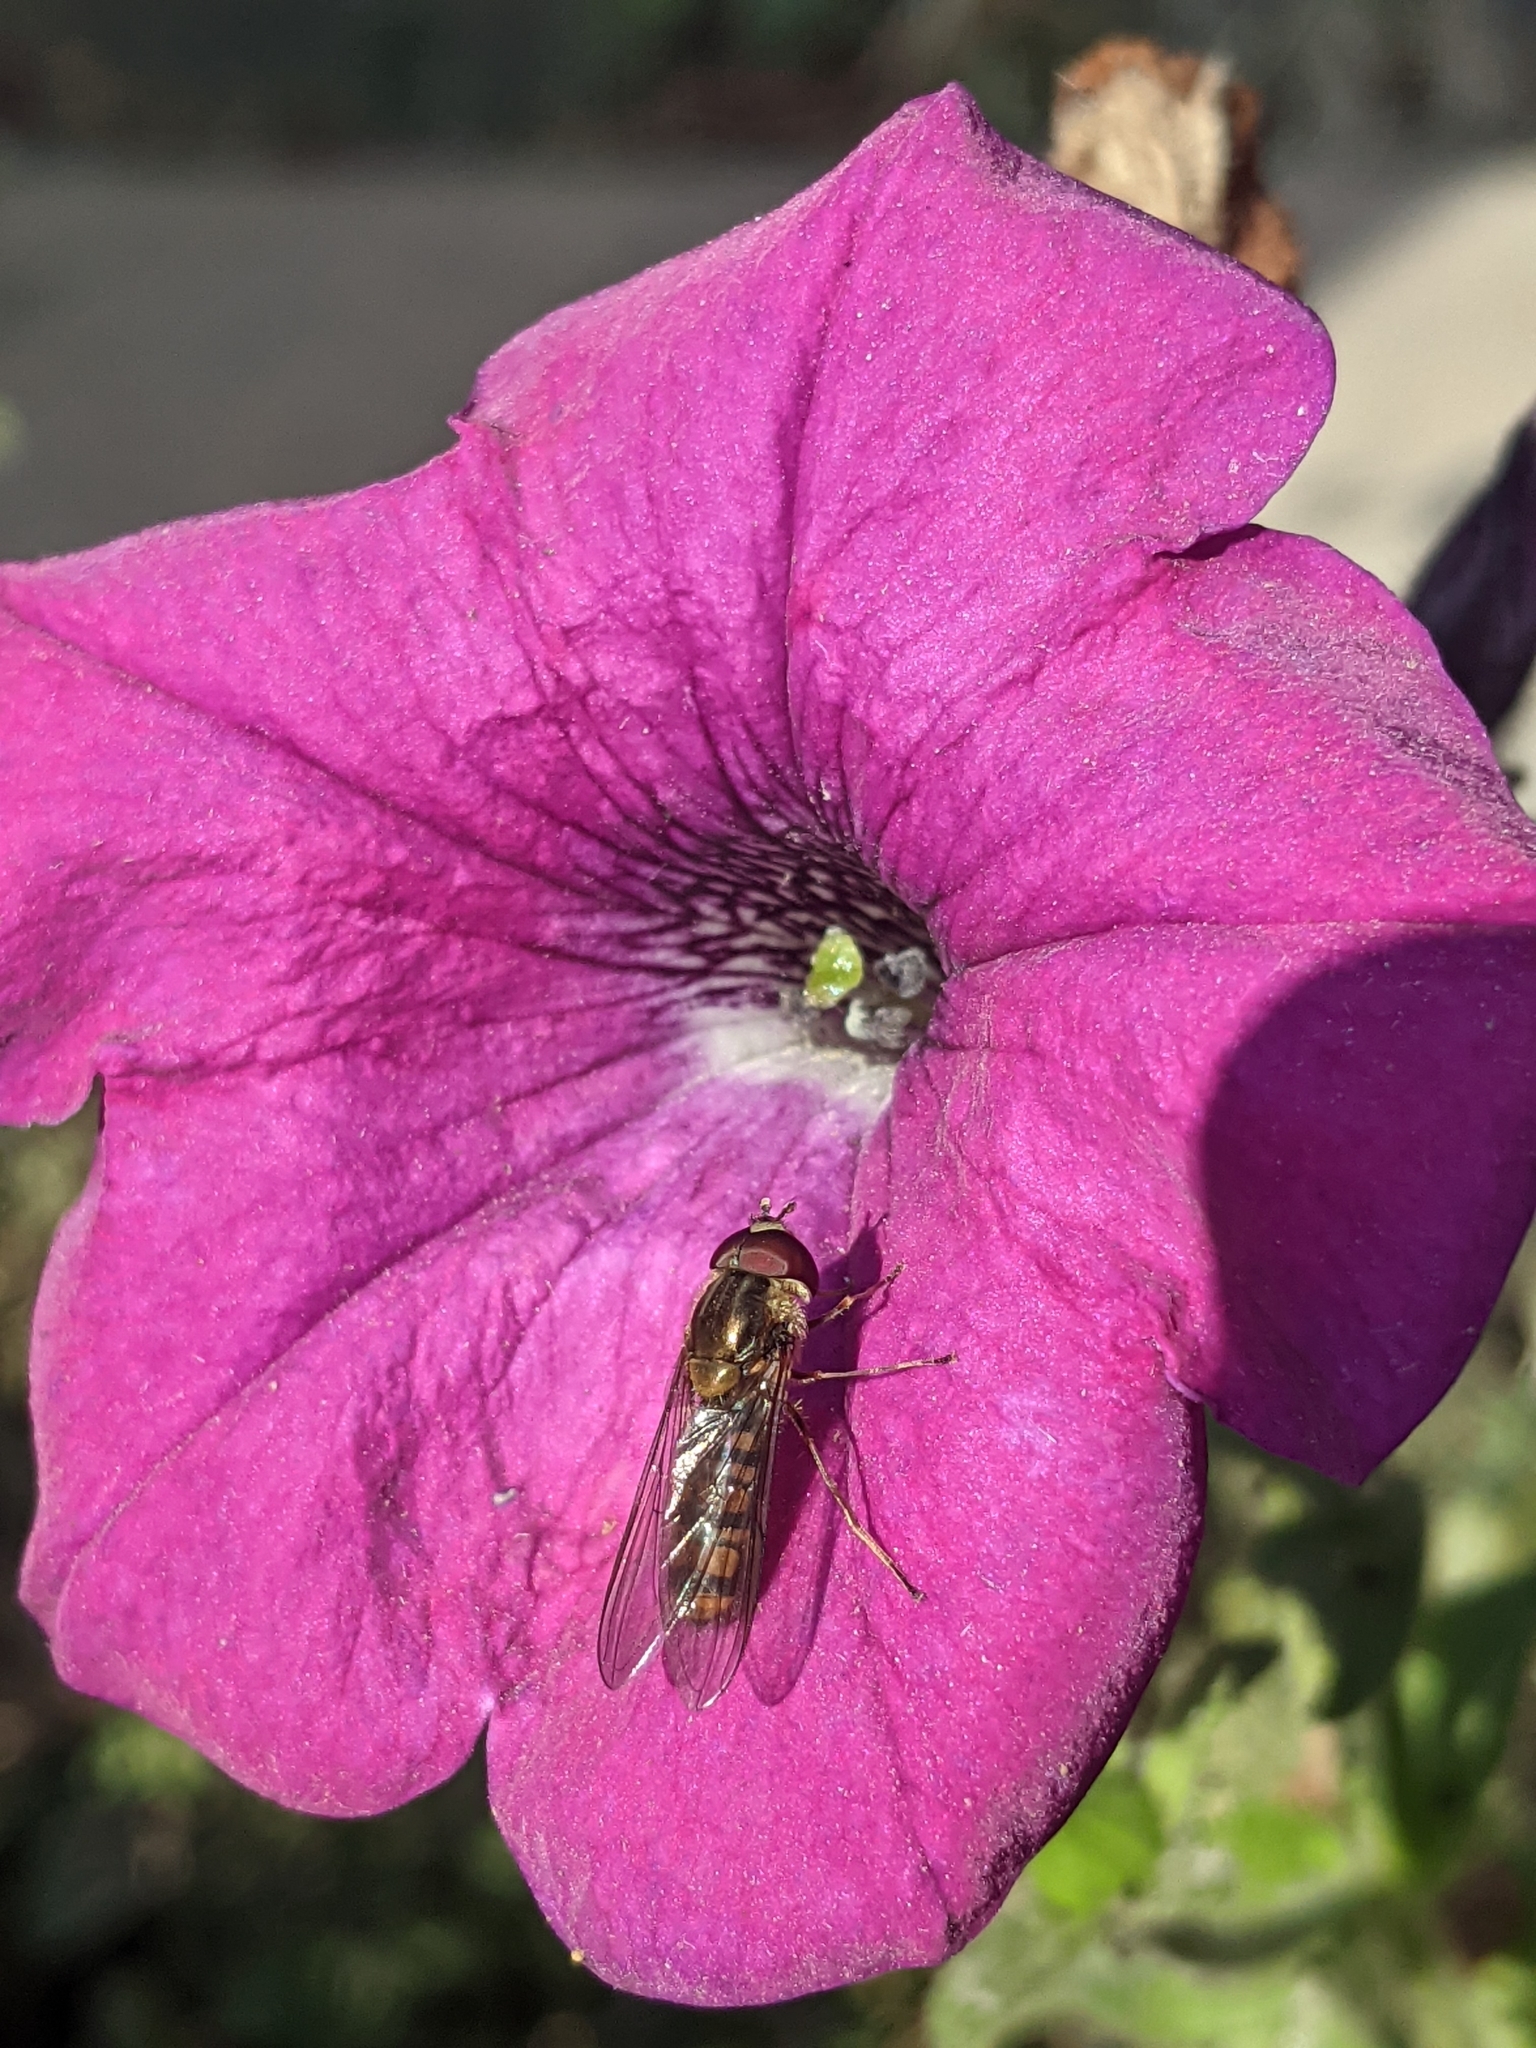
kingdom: Animalia
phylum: Arthropoda
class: Insecta
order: Diptera
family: Syrphidae
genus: Episyrphus
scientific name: Episyrphus balteatus
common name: Marmalade hoverfly
